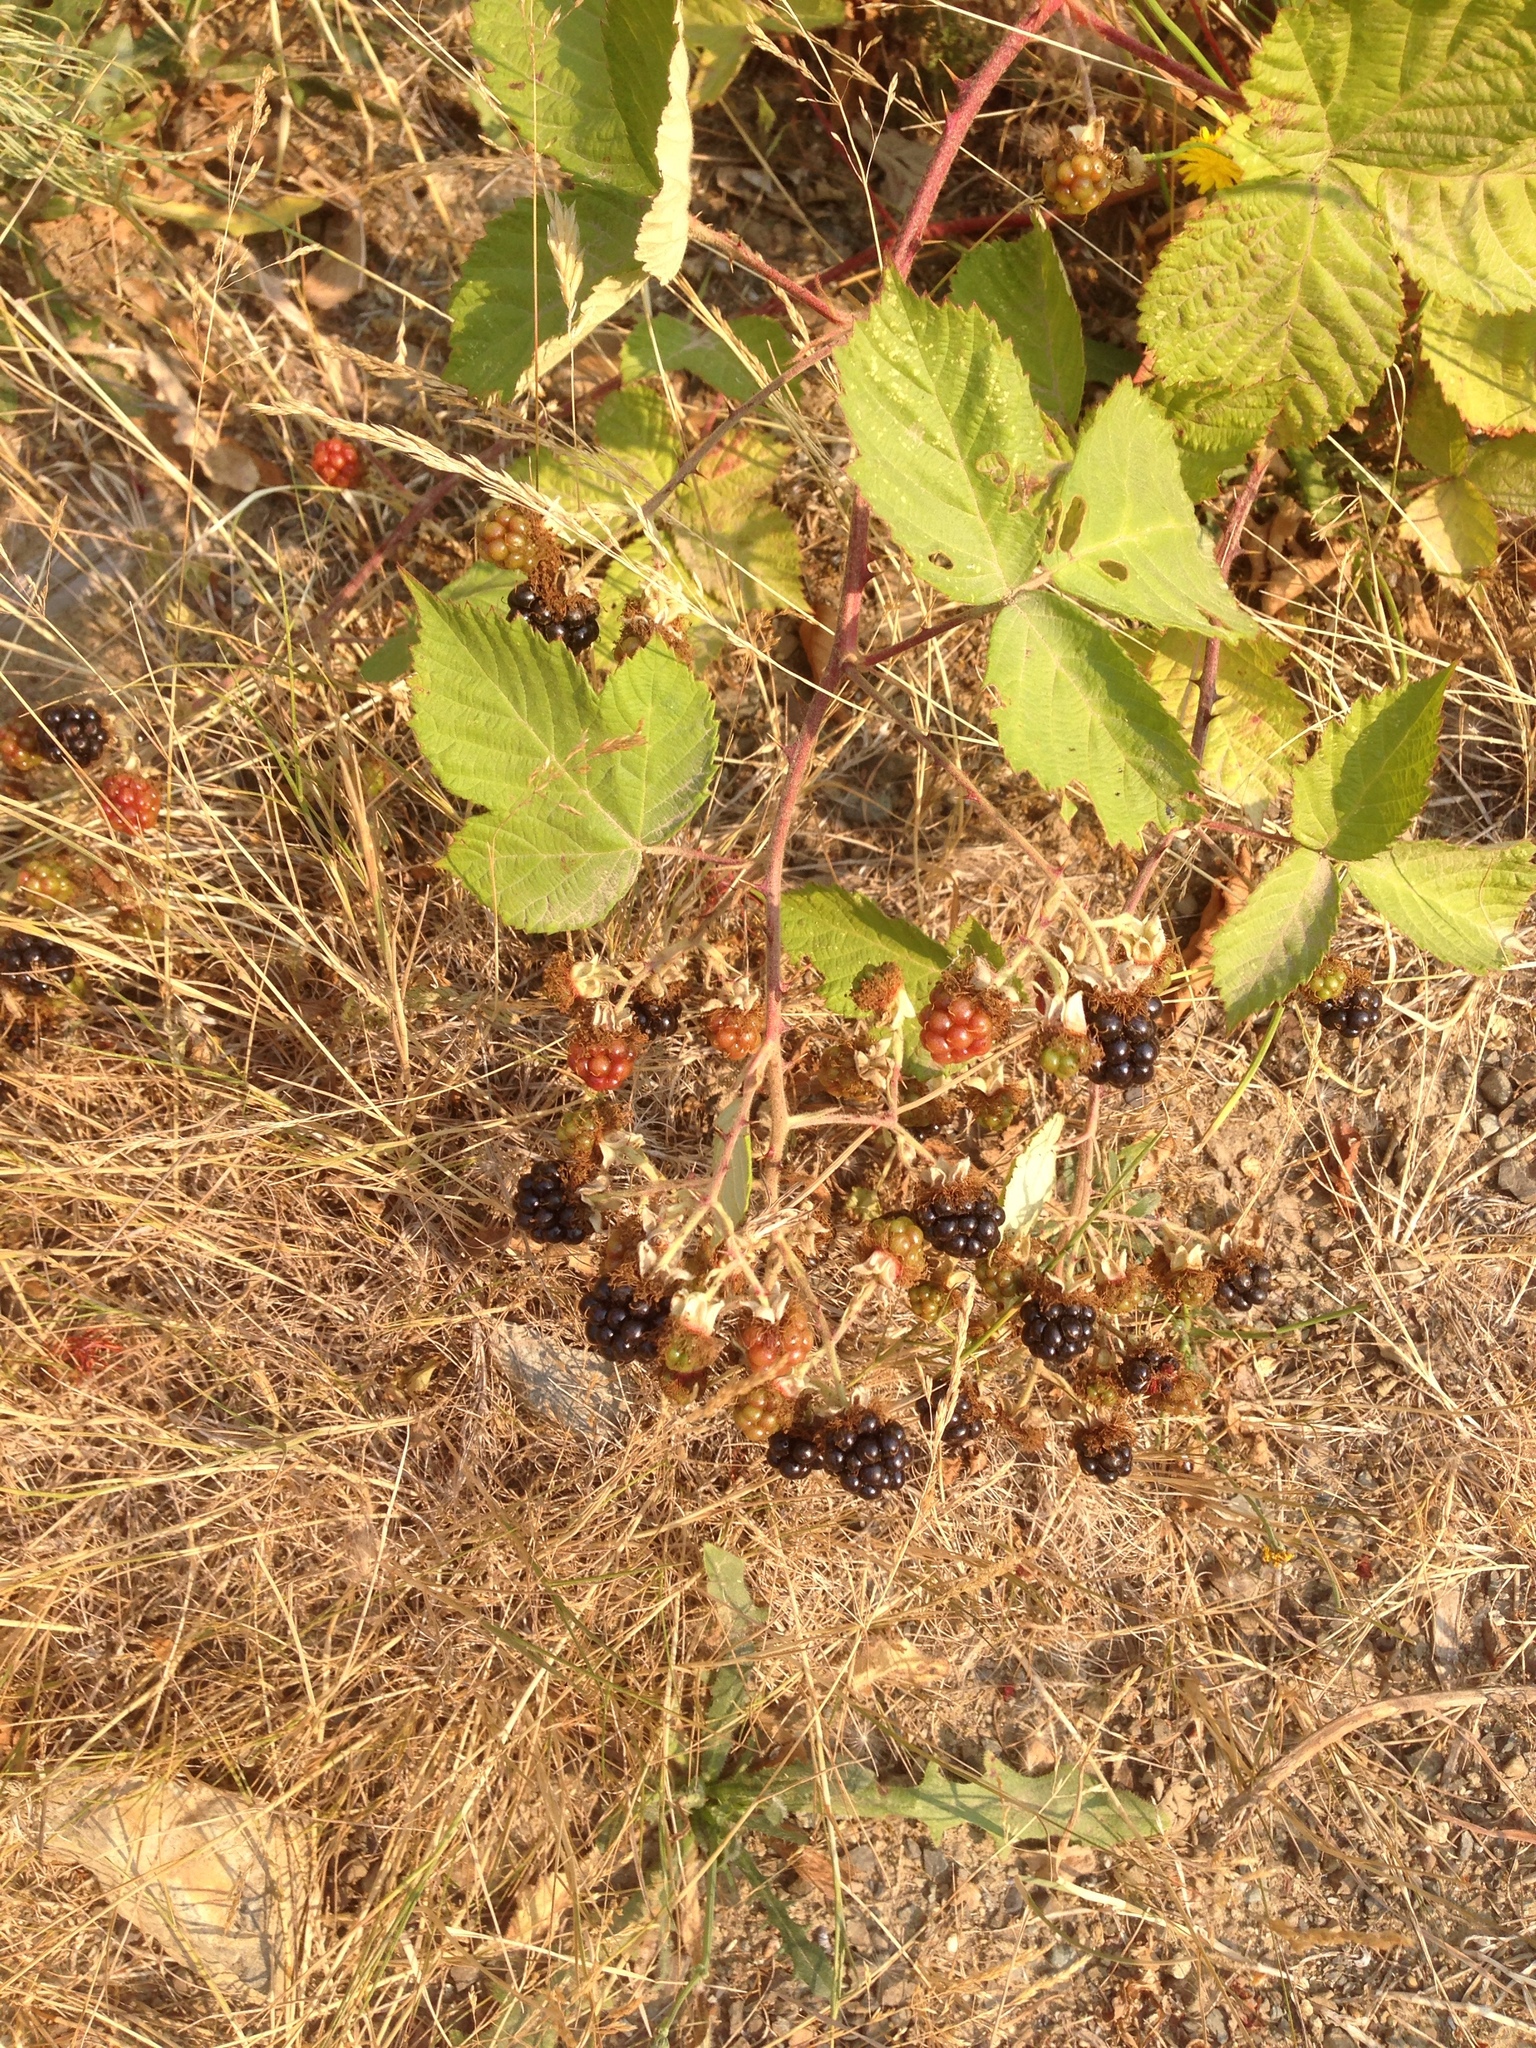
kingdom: Plantae
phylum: Tracheophyta
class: Magnoliopsida
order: Rosales
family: Rosaceae
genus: Rubus
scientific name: Rubus armeniacus
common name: Himalayan blackberry
